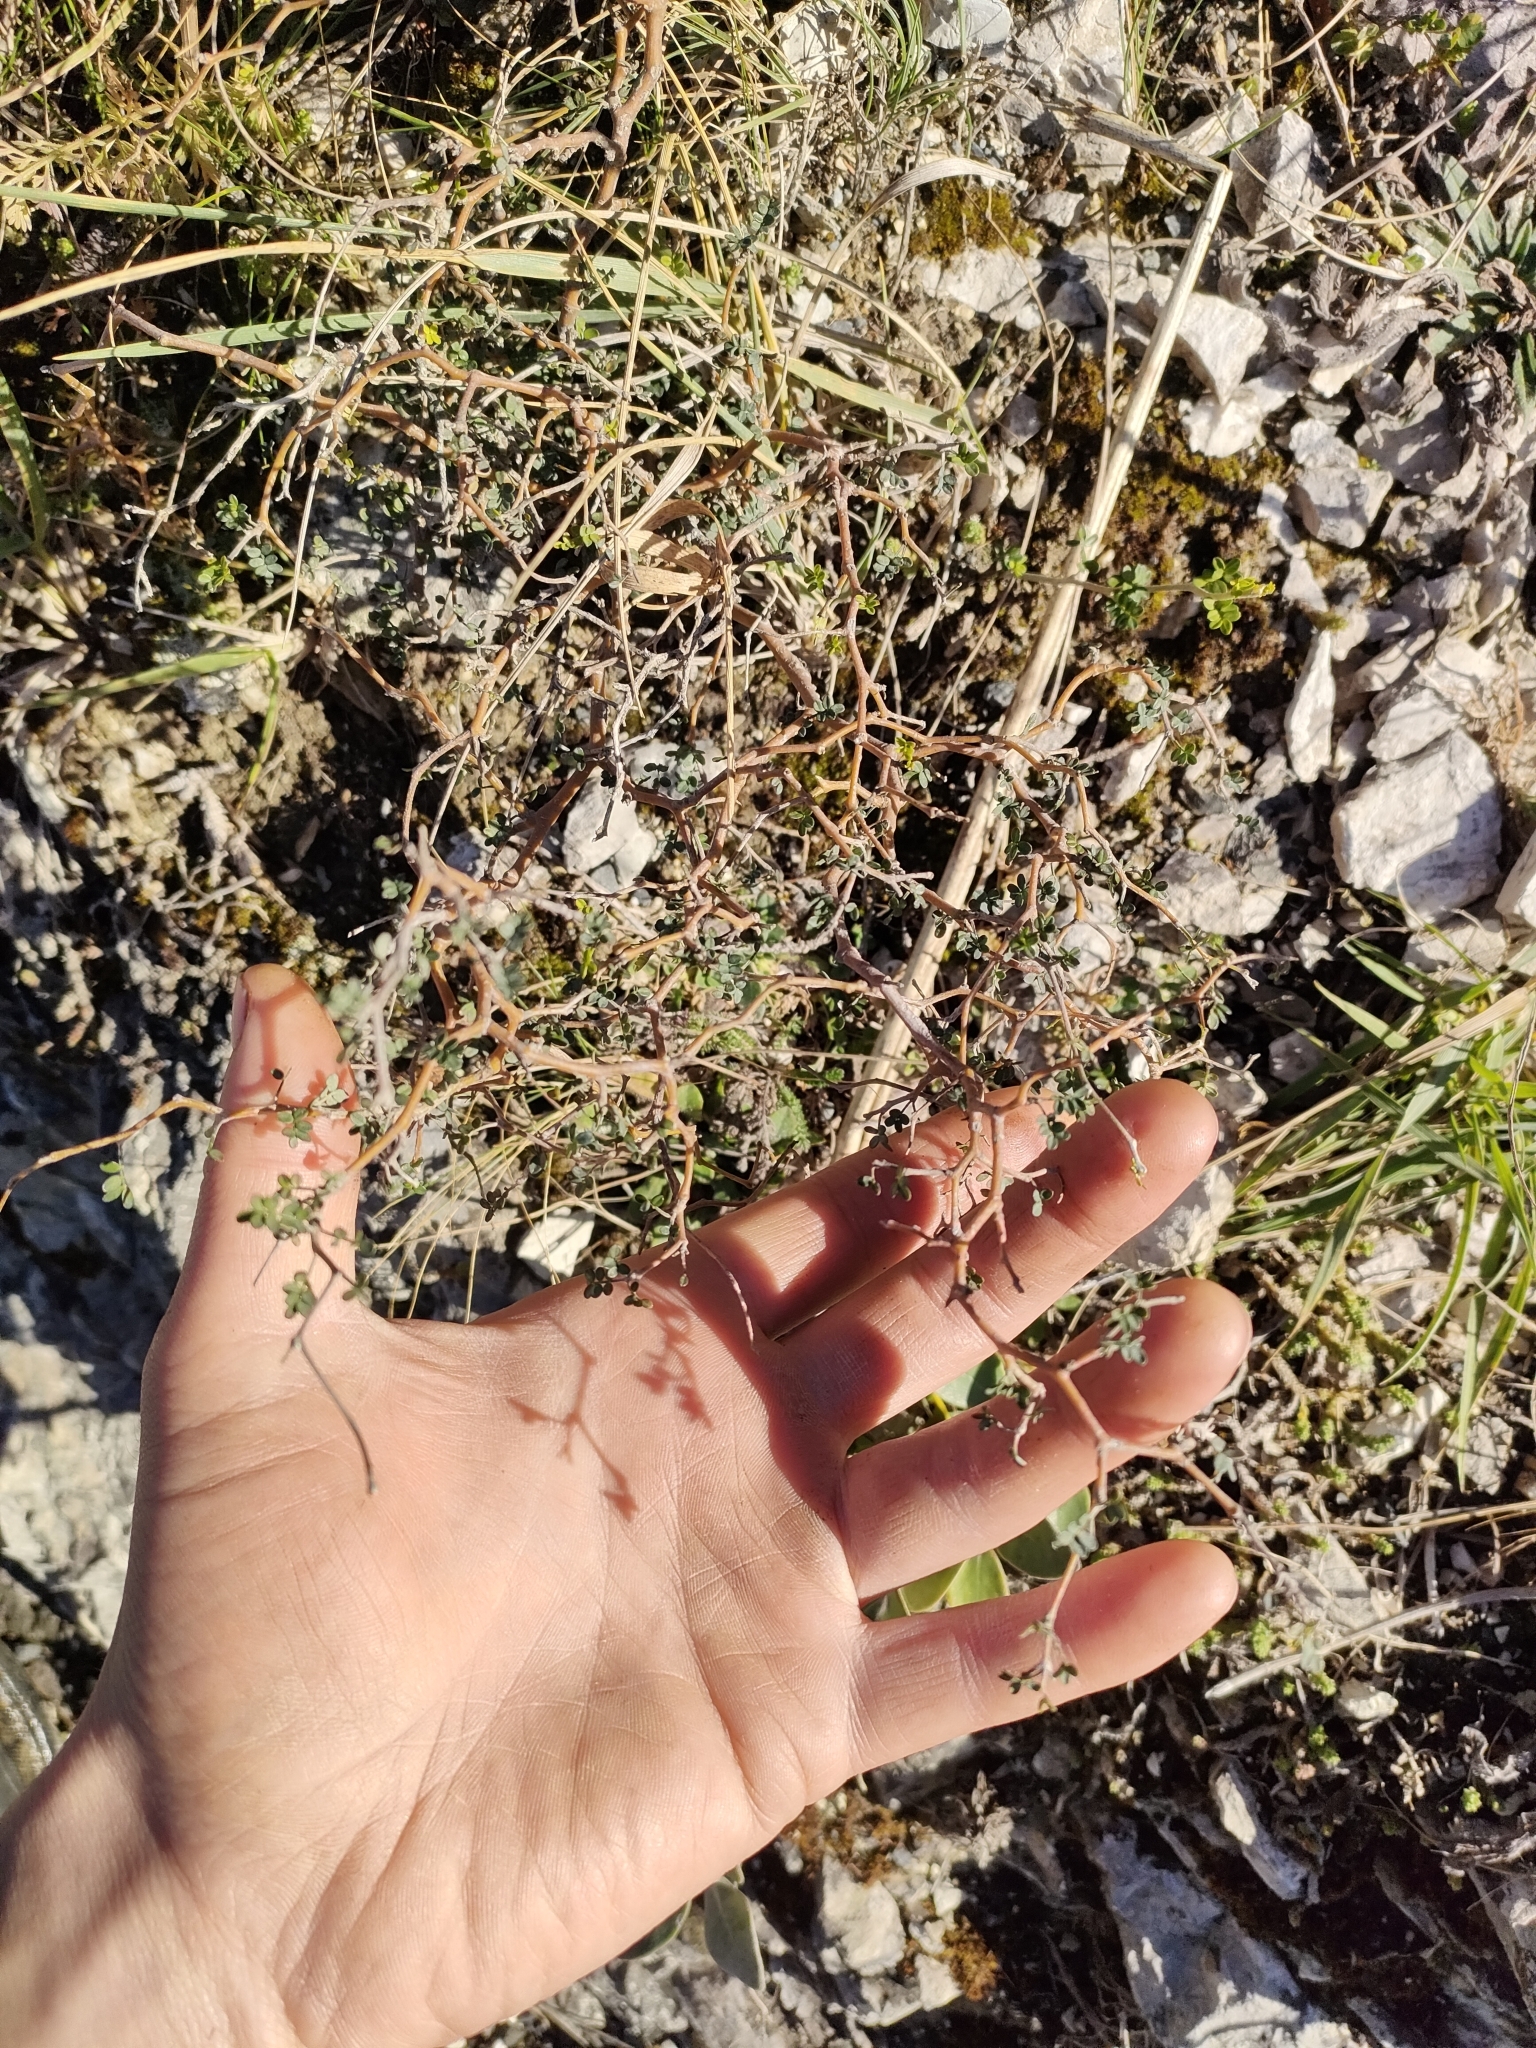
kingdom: Plantae
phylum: Tracheophyta
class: Magnoliopsida
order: Fabales
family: Fabaceae
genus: Sophora
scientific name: Sophora prostrata
